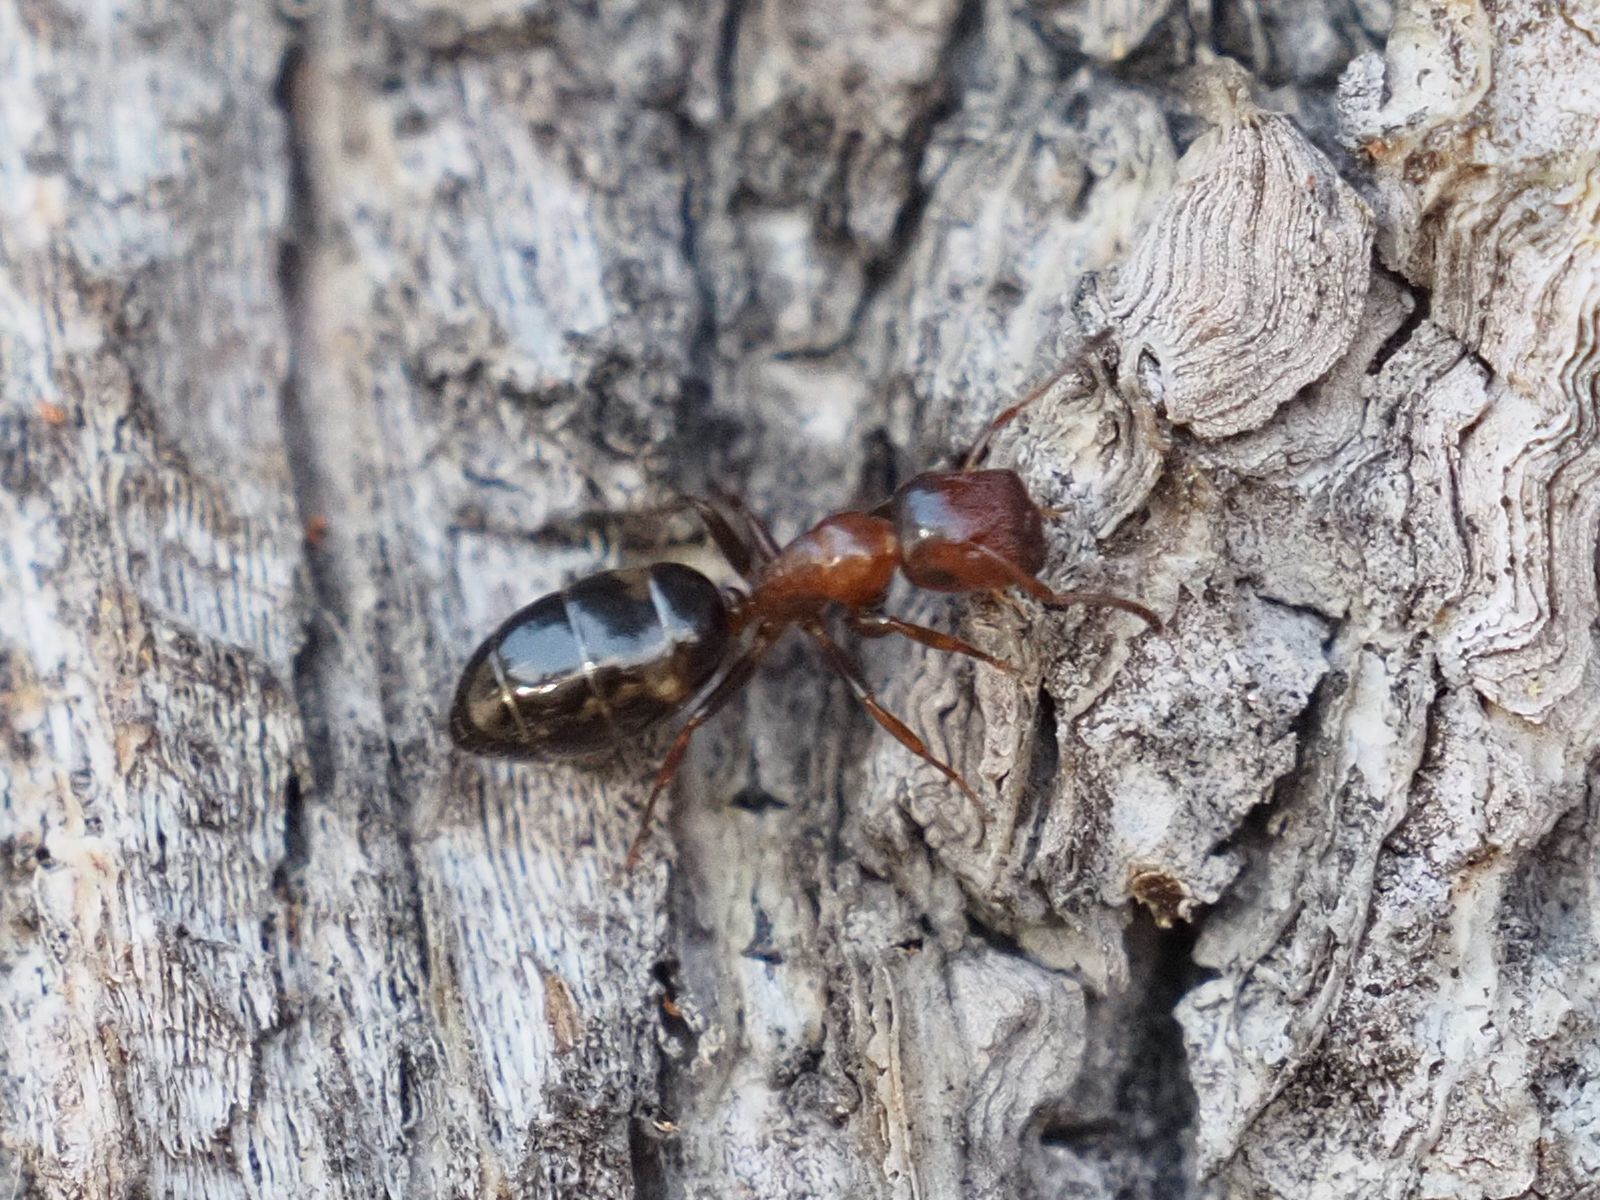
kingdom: Animalia
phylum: Arthropoda
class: Insecta
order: Hymenoptera
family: Formicidae
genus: Camponotus
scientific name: Camponotus truncatus
